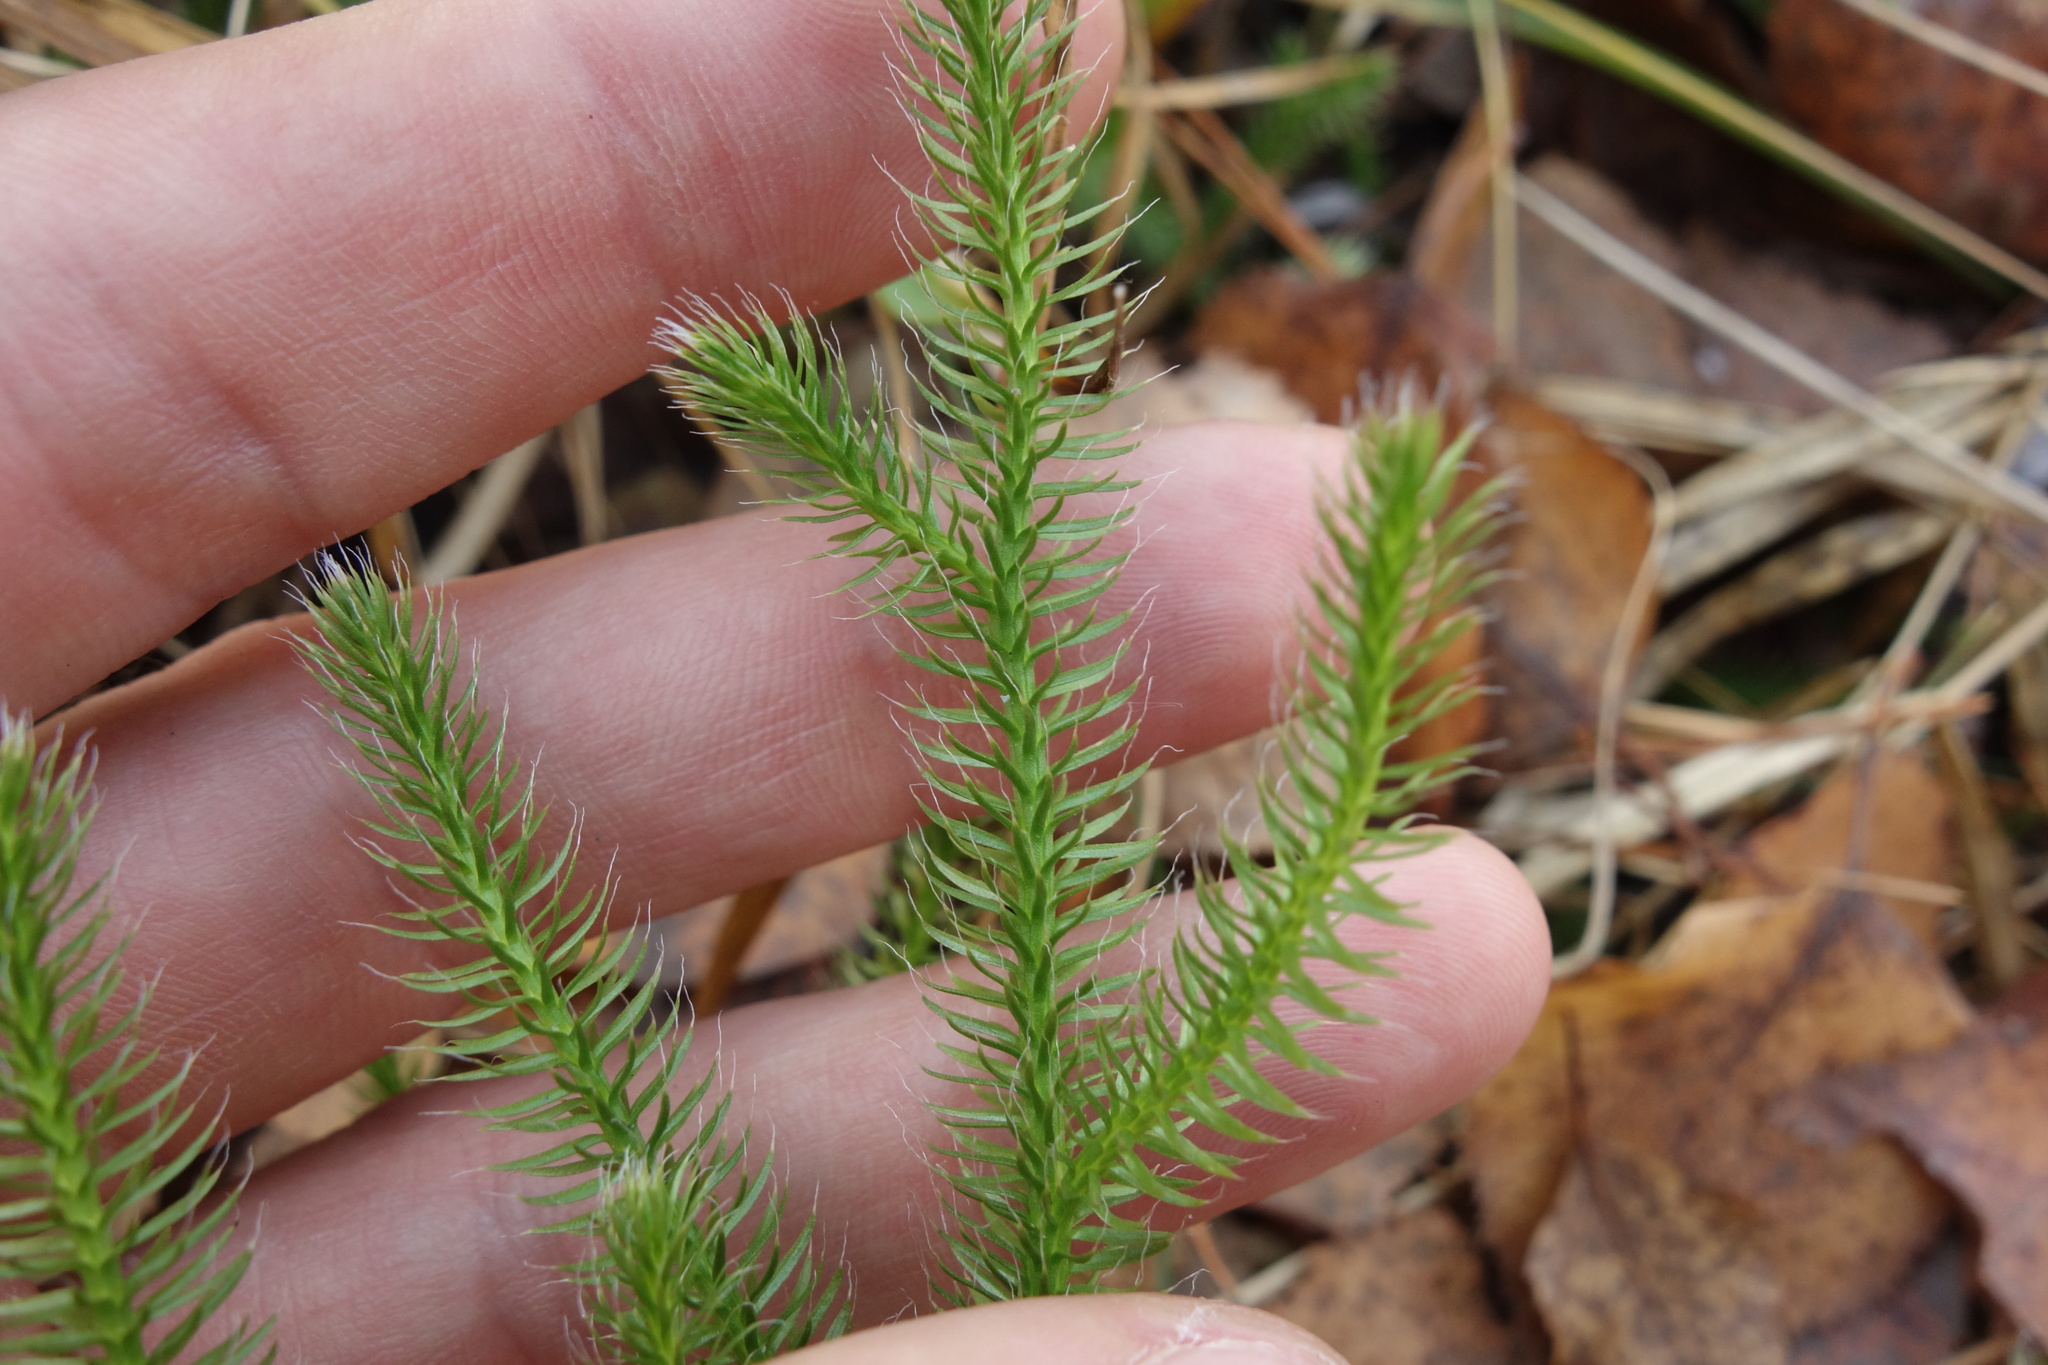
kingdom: Plantae
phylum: Tracheophyta
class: Lycopodiopsida
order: Lycopodiales
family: Lycopodiaceae
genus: Lycopodium
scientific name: Lycopodium clavatum
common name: Stag's-horn clubmoss
